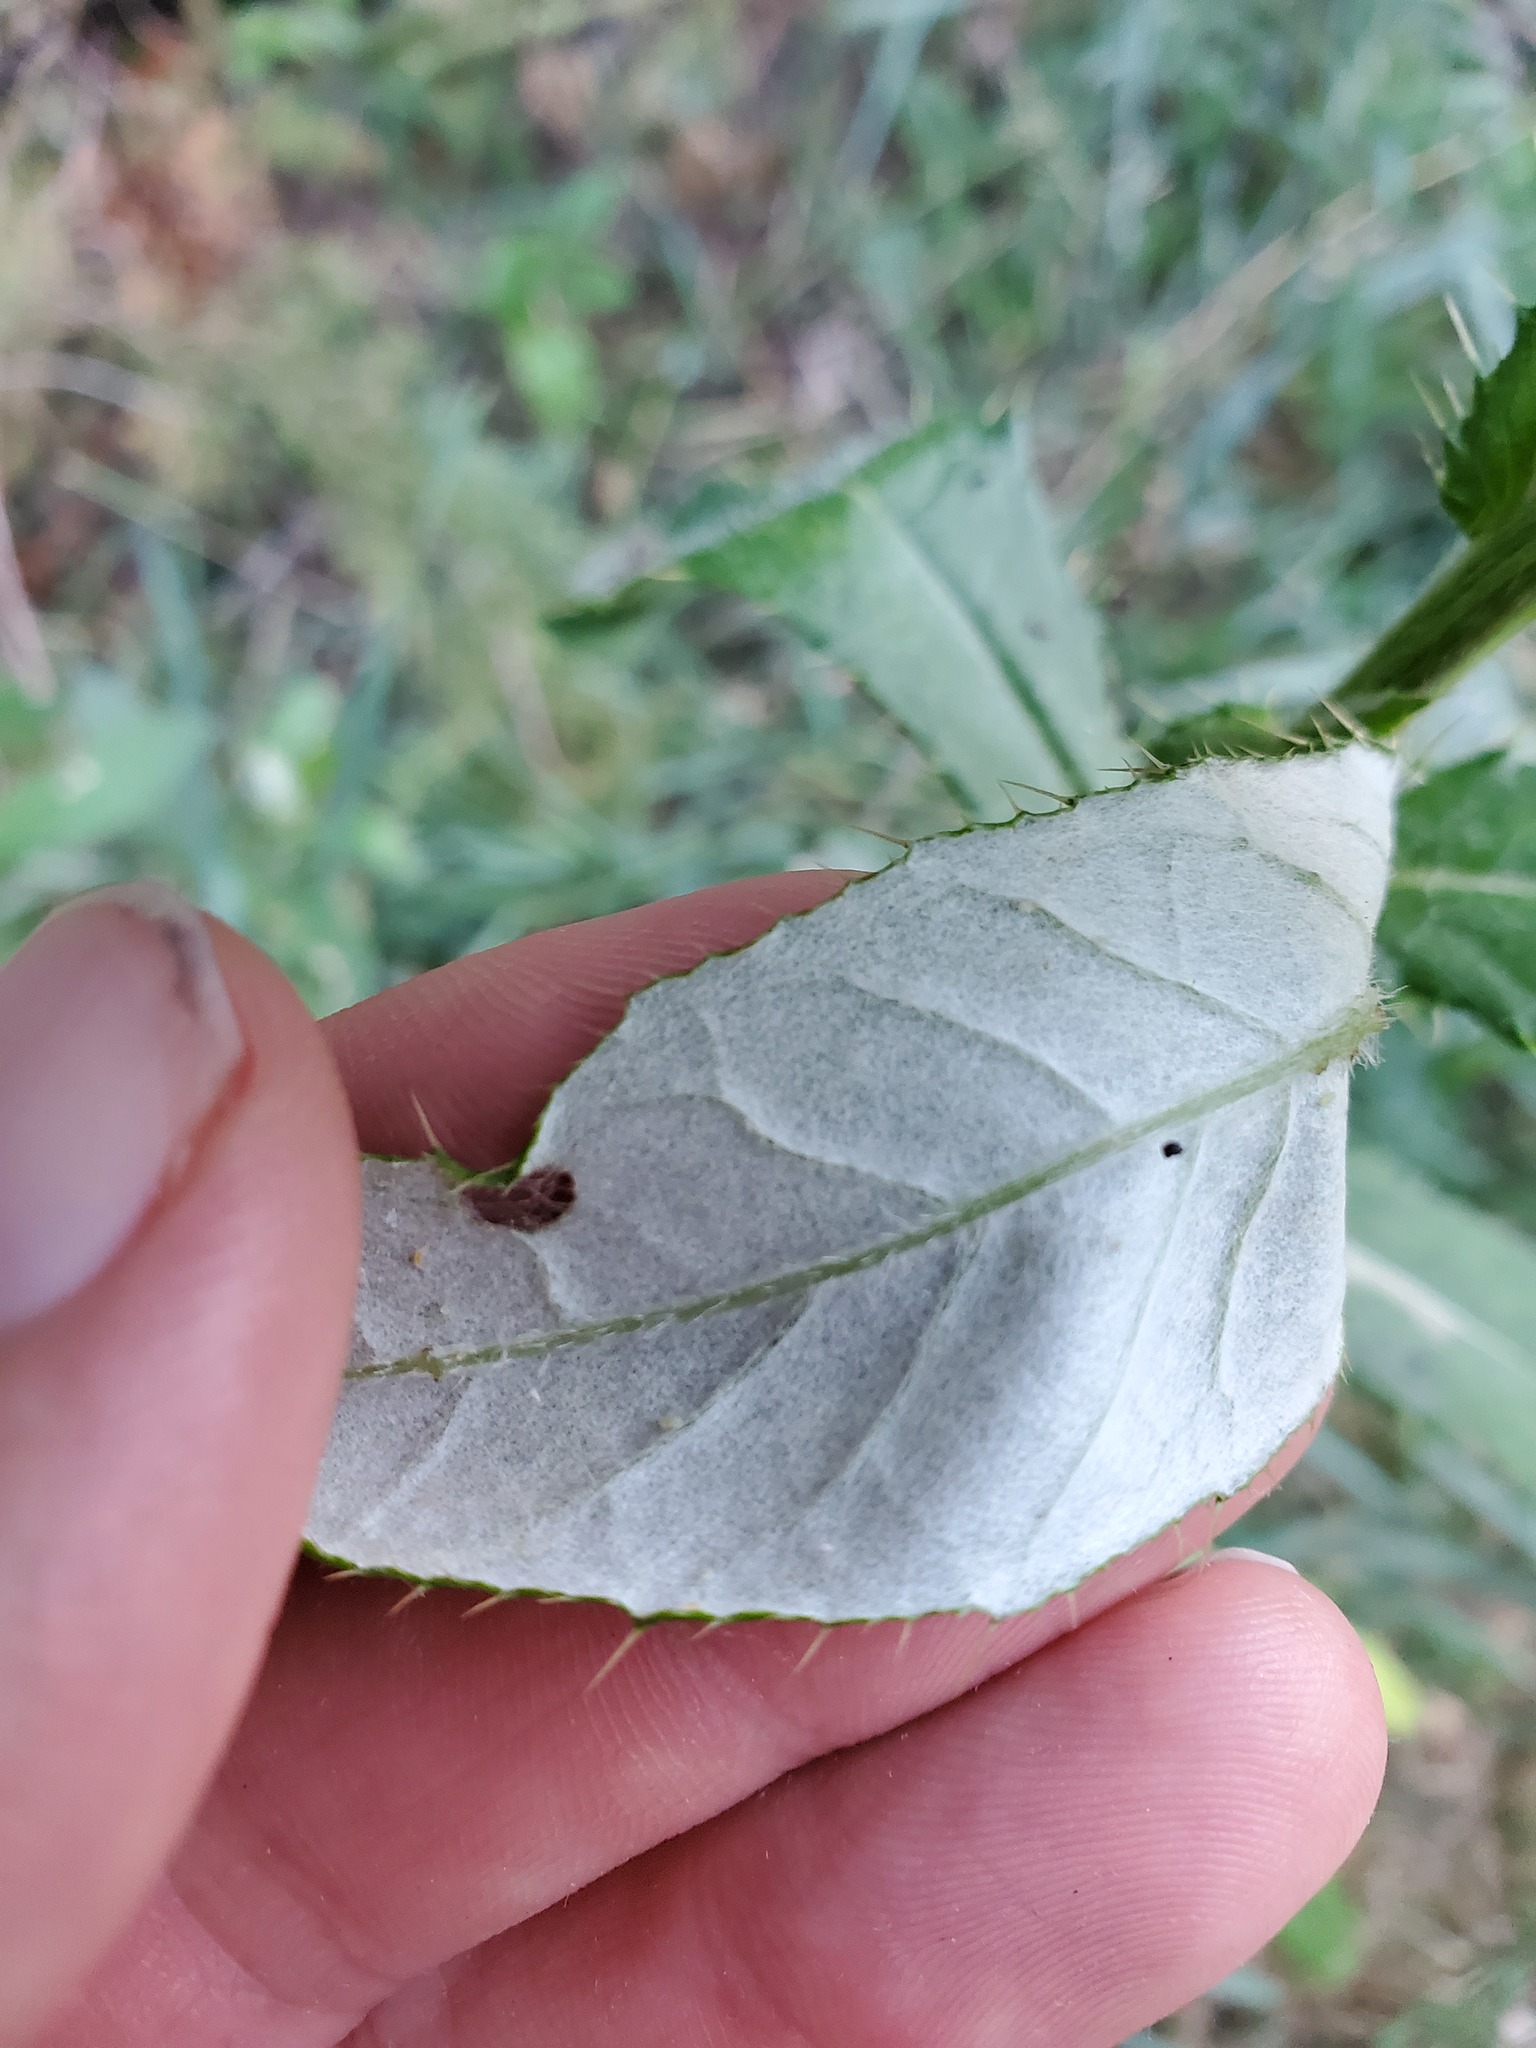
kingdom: Plantae
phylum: Tracheophyta
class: Magnoliopsida
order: Asterales
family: Asteraceae
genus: Cirsium
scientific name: Cirsium altissimum
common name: Roadside thistle
